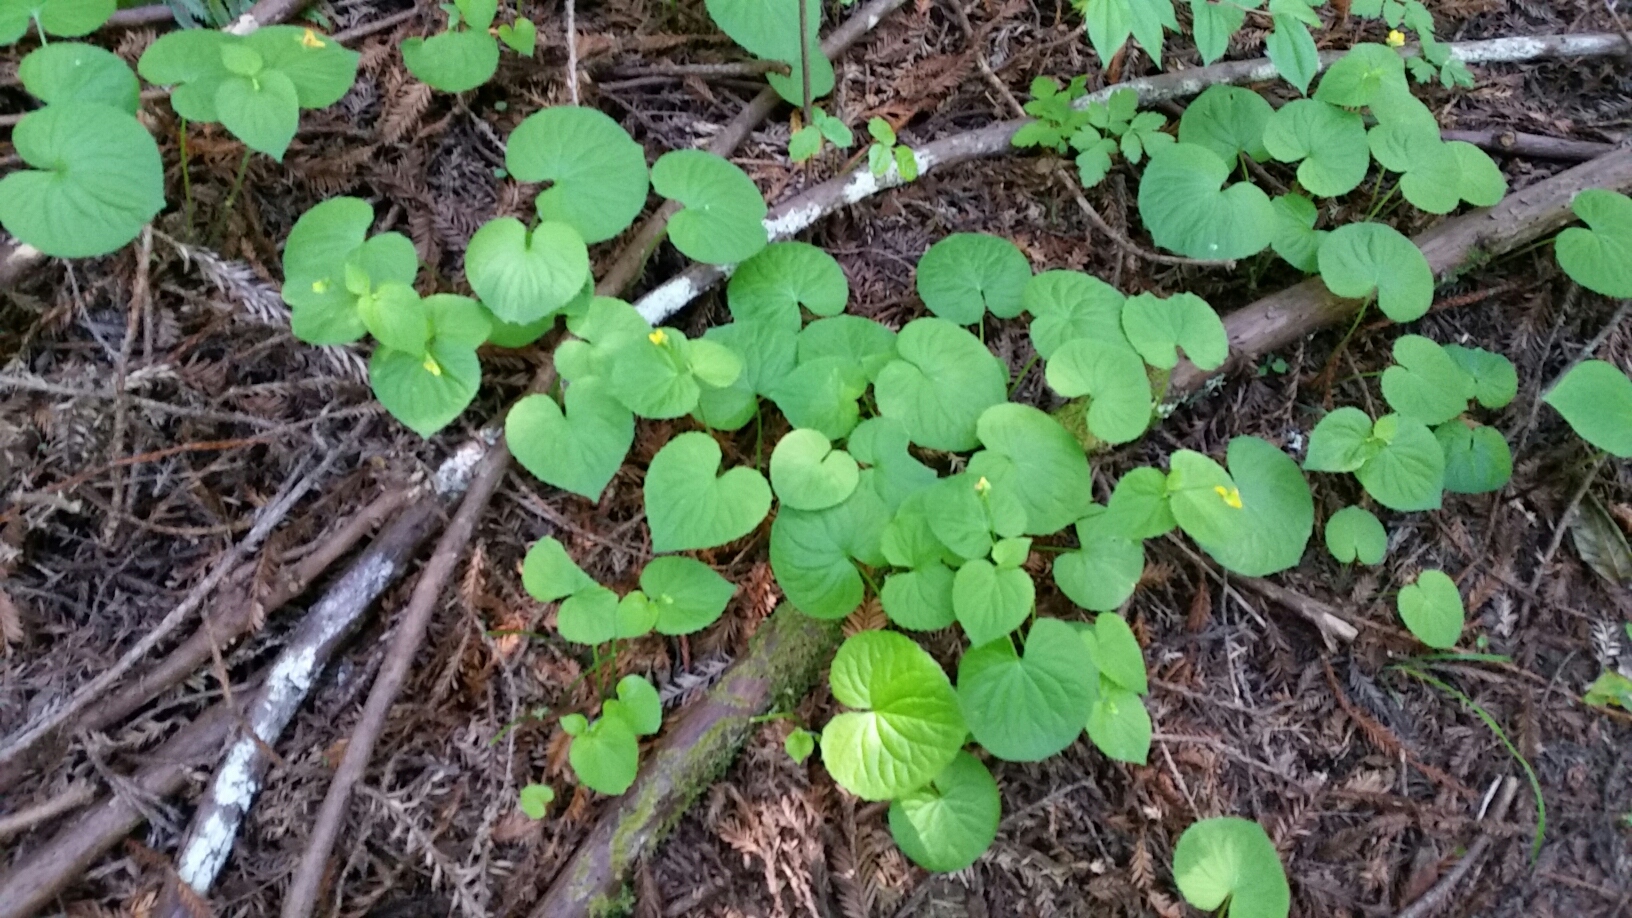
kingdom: Plantae
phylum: Tracheophyta
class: Magnoliopsida
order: Malpighiales
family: Violaceae
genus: Viola
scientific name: Viola glabella
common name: Stream violet
